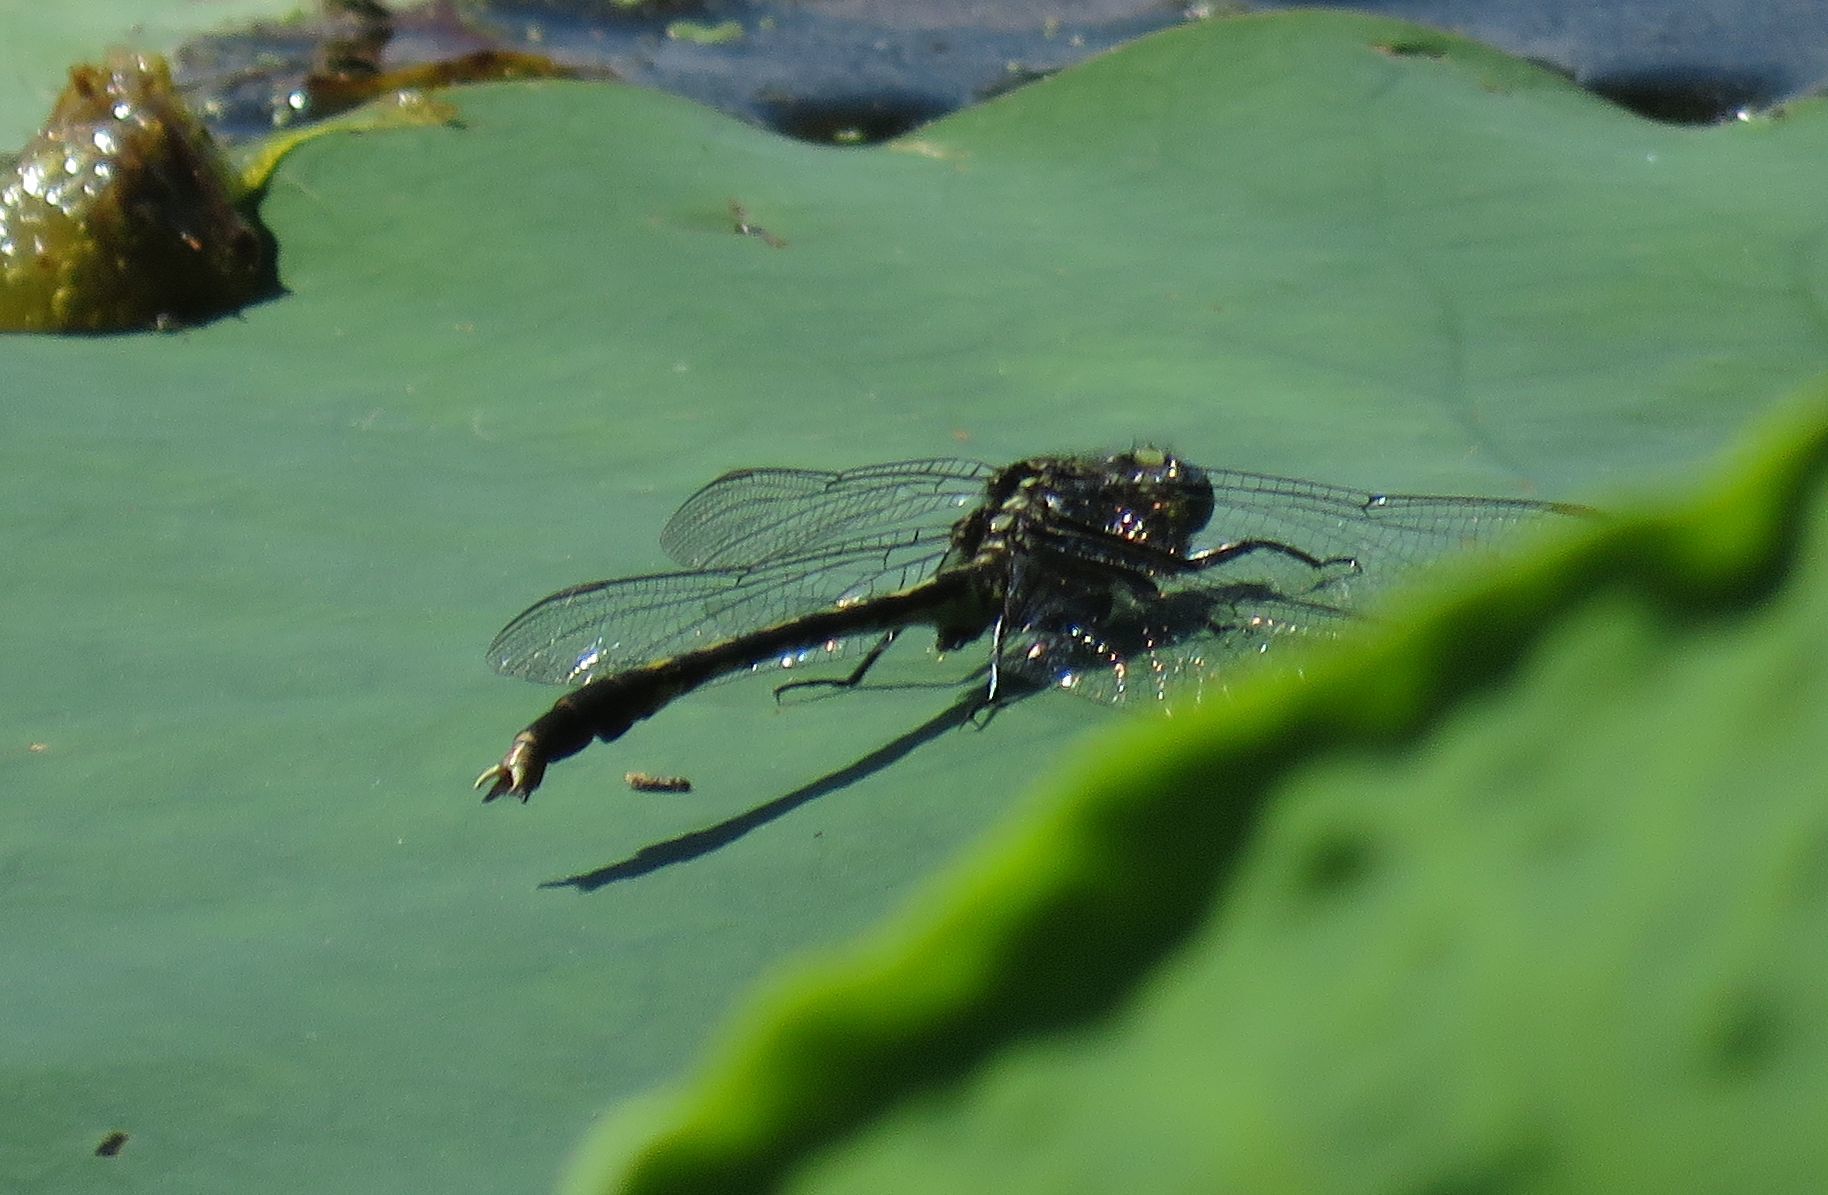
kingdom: Animalia
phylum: Arthropoda
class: Insecta
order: Odonata
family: Gomphidae
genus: Arigomphus
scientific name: Arigomphus villosipes
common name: Unicorn clubtail
